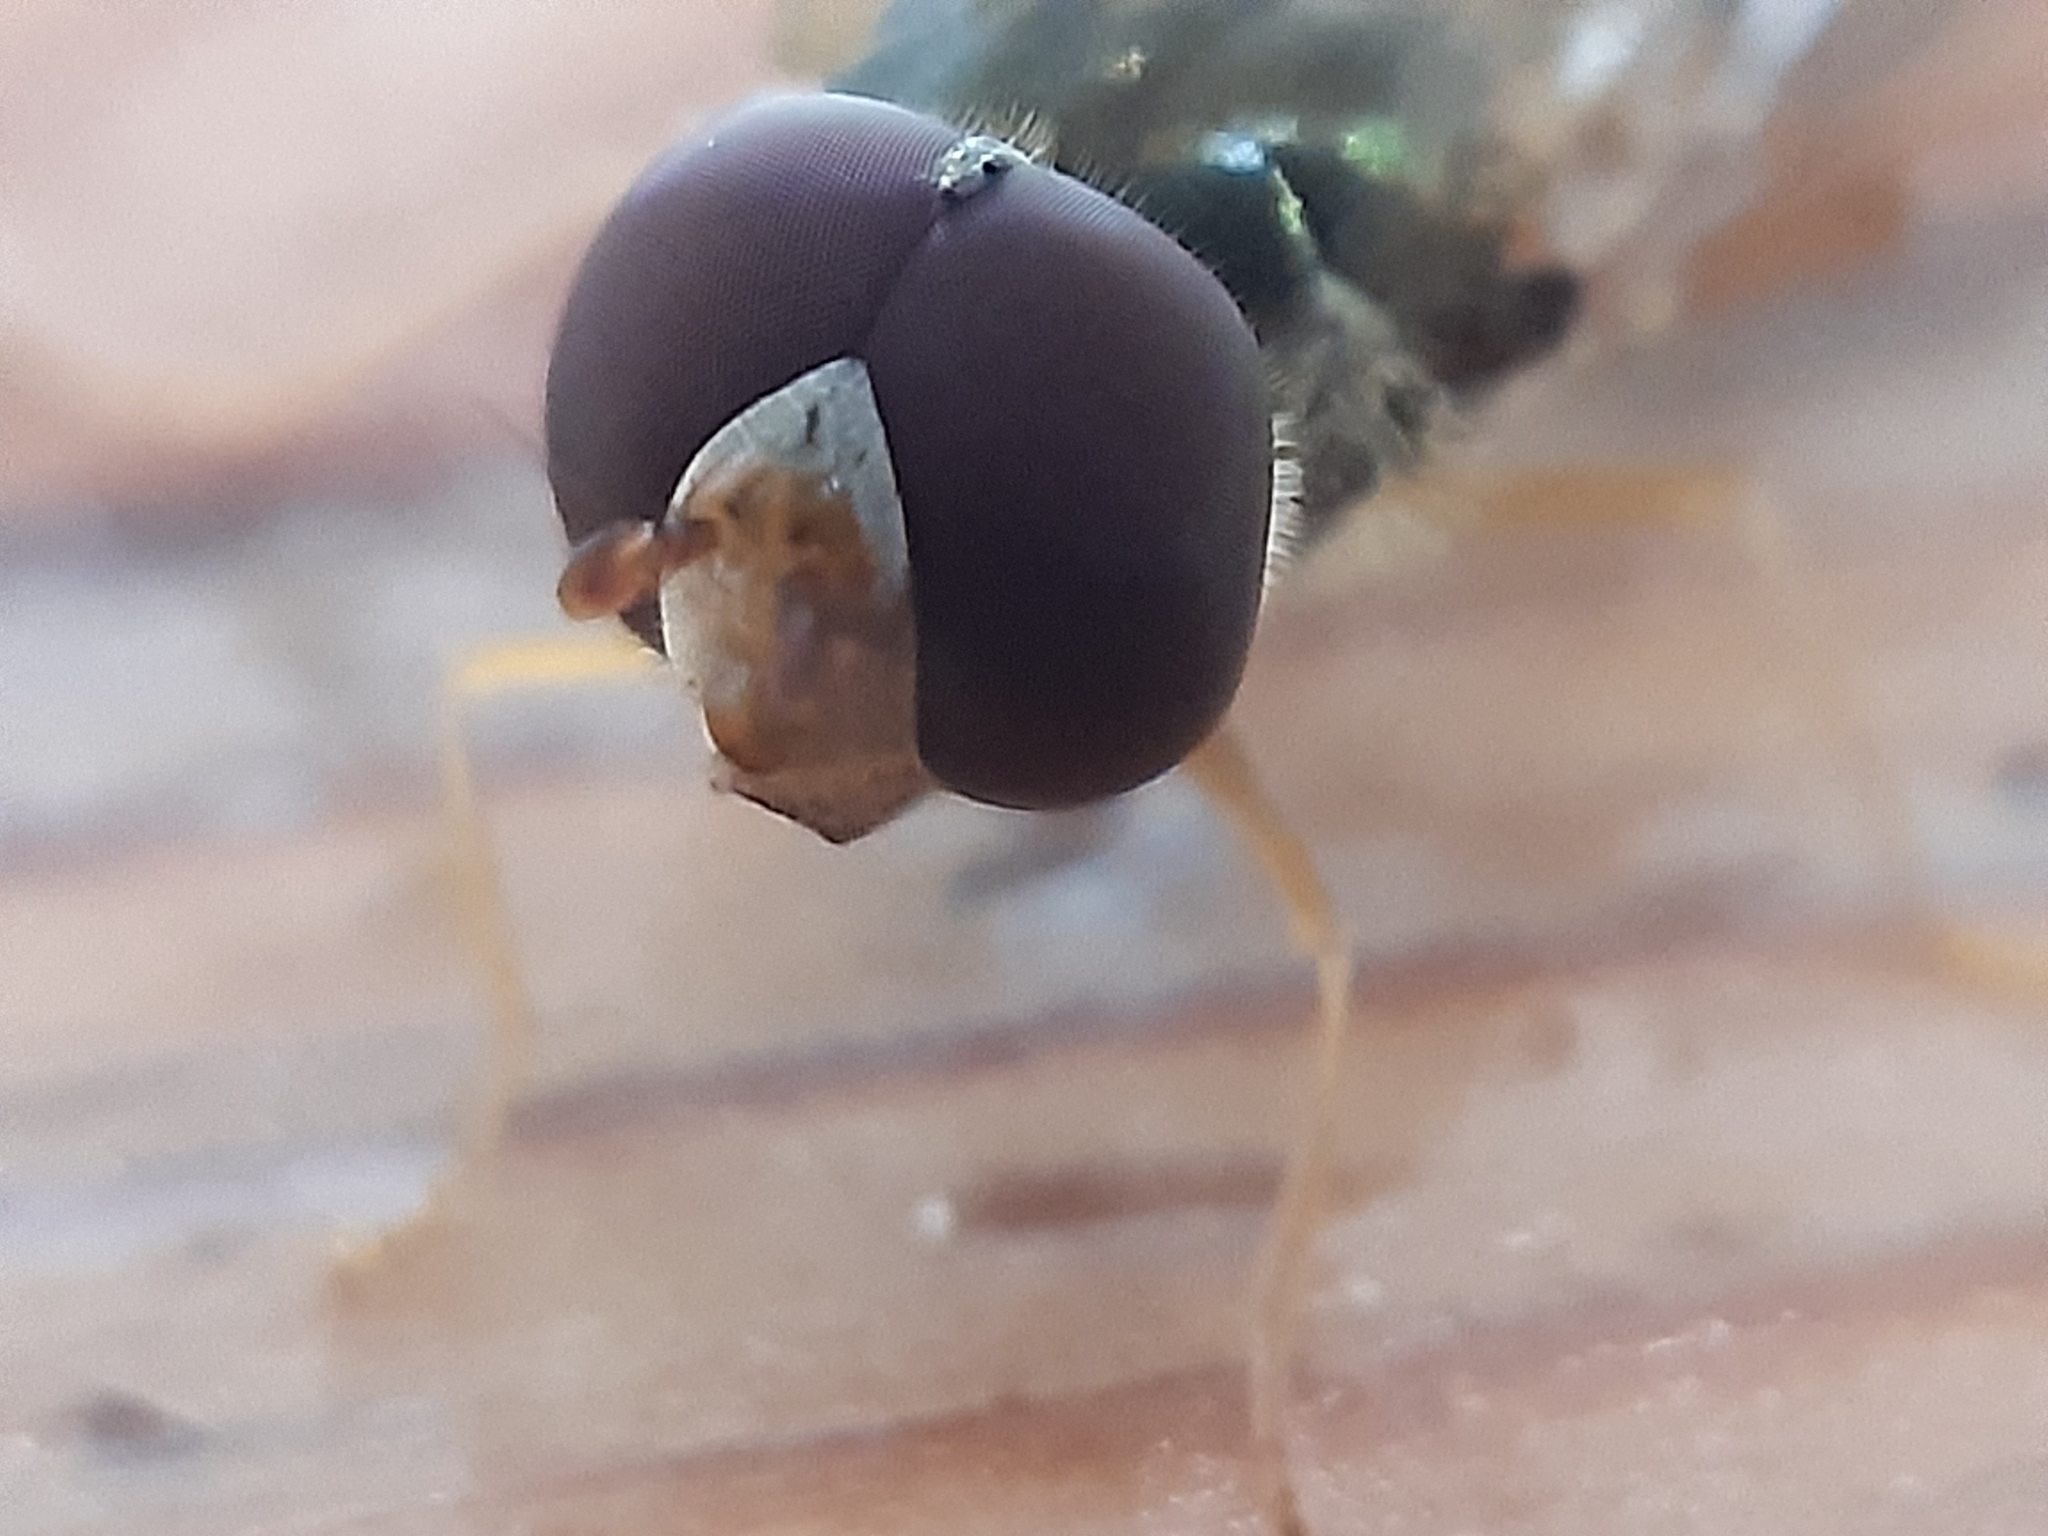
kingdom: Animalia
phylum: Arthropoda
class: Insecta
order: Diptera
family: Syrphidae
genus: Episyrphus
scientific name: Episyrphus balteatus
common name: Marmalade hoverfly
